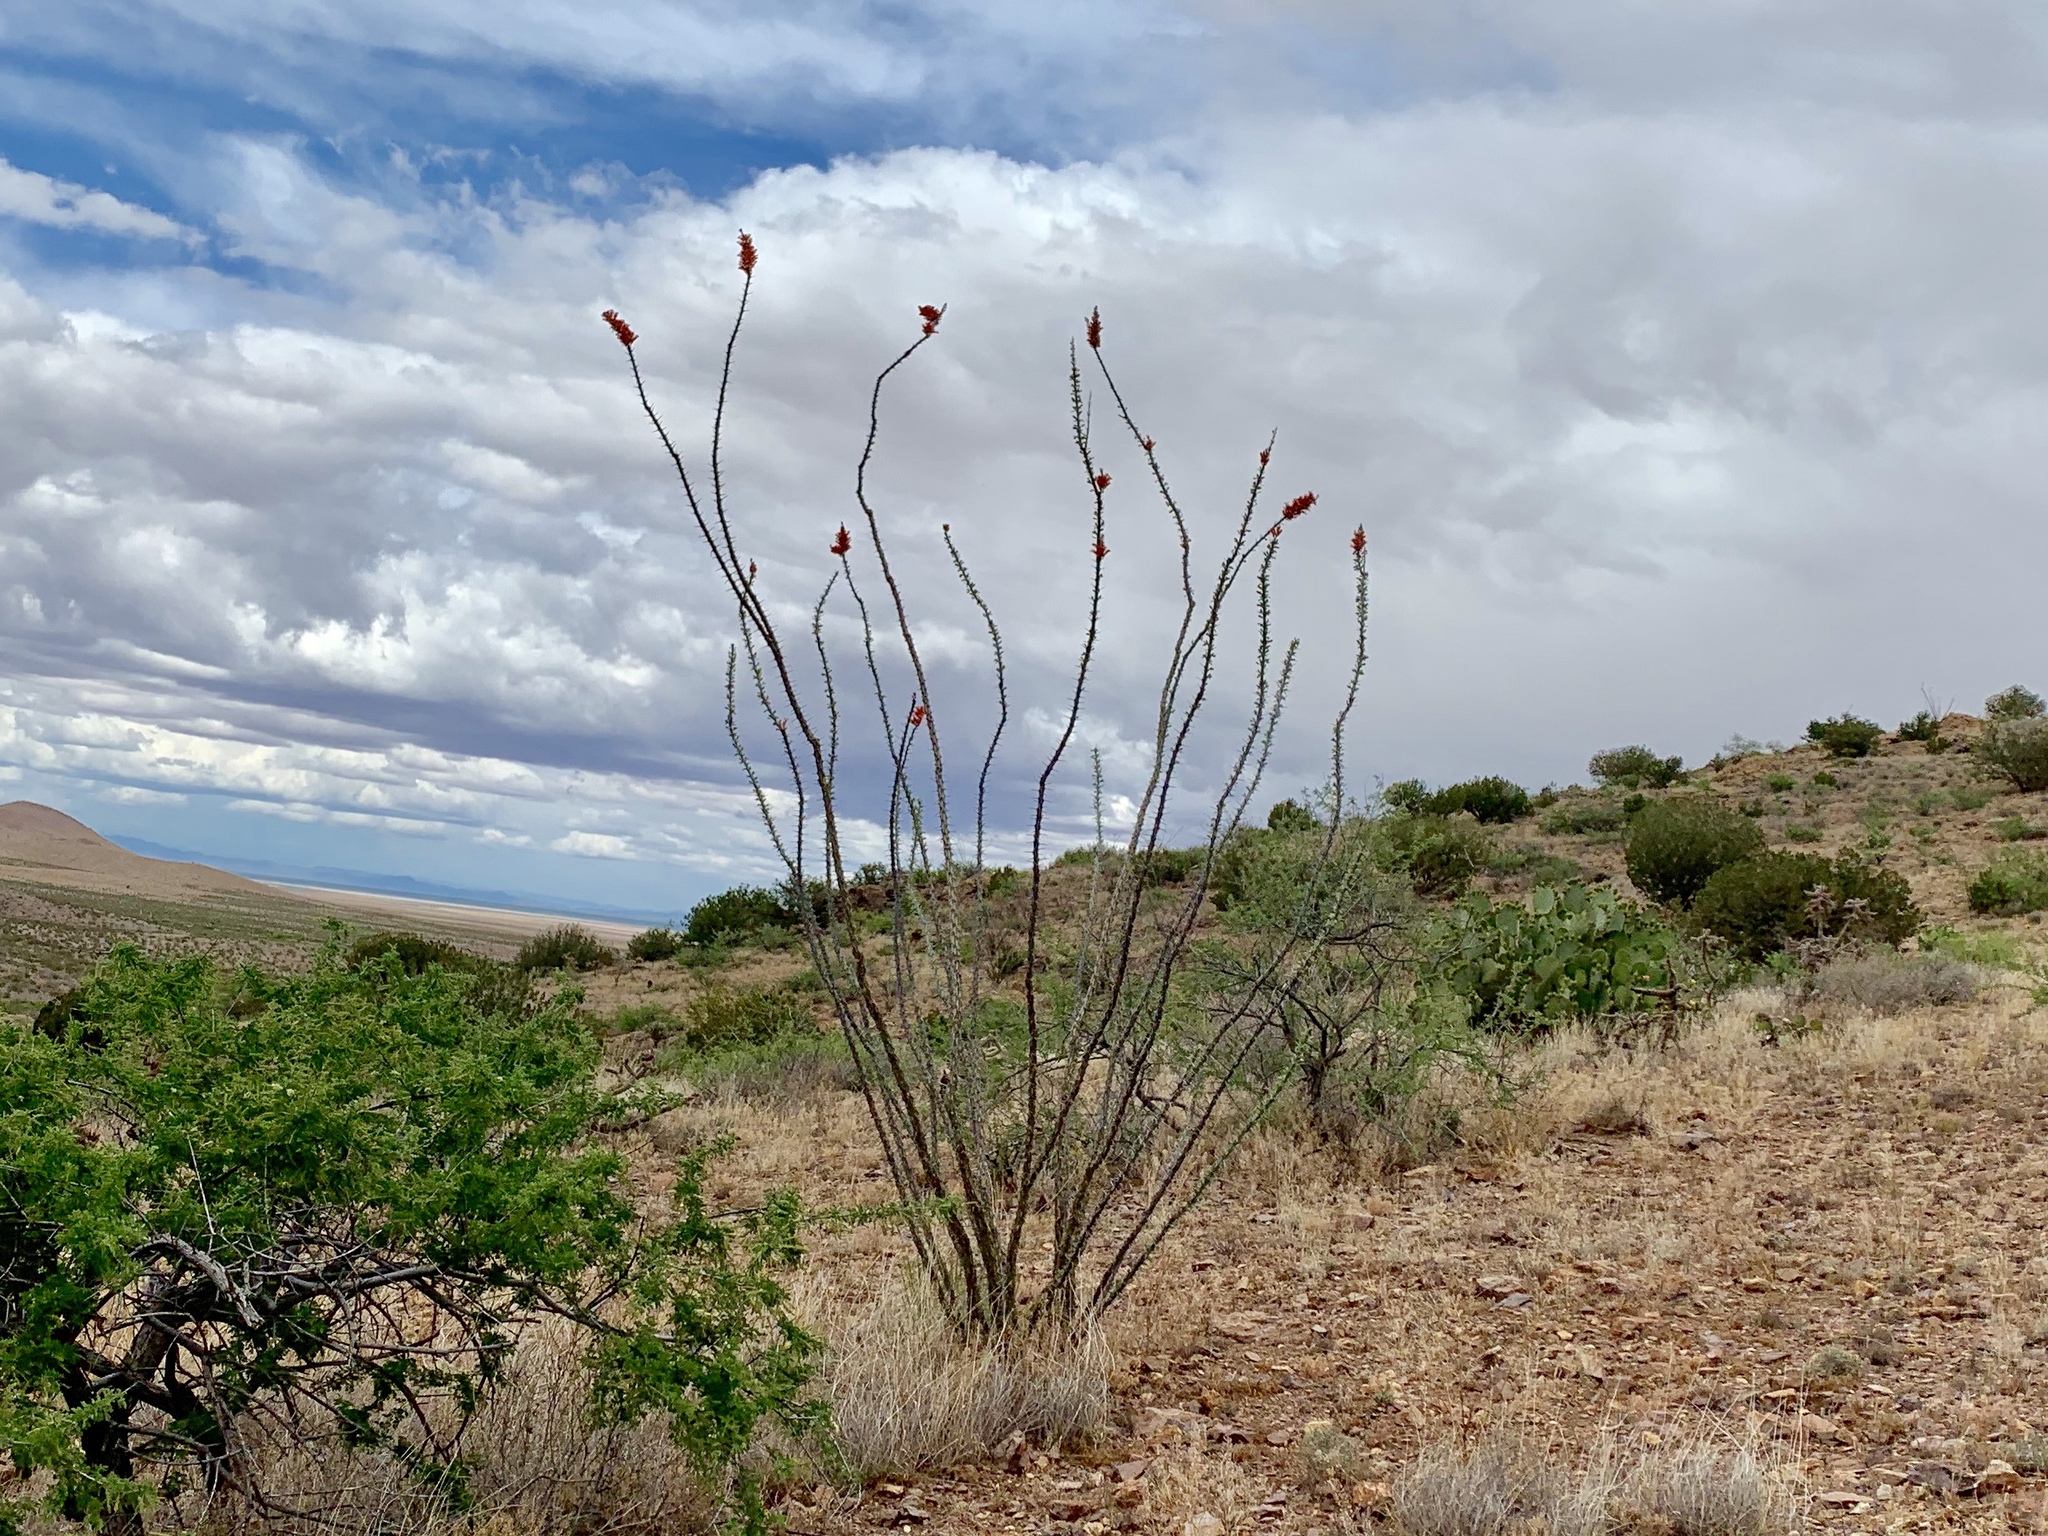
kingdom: Plantae
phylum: Tracheophyta
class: Magnoliopsida
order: Ericales
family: Fouquieriaceae
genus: Fouquieria
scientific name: Fouquieria splendens
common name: Vine-cactus
